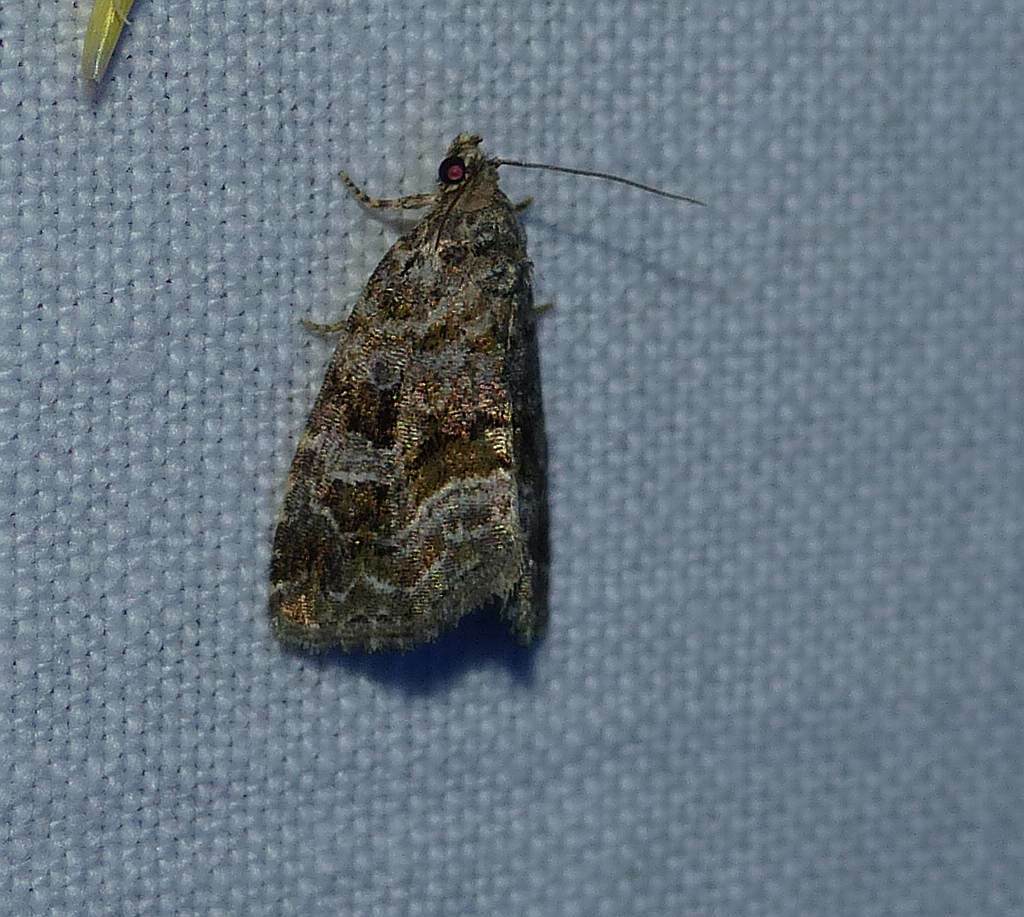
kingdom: Animalia
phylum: Arthropoda
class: Insecta
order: Lepidoptera
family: Noctuidae
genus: Protodeltote
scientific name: Protodeltote muscosula
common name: Large mossy glyph
